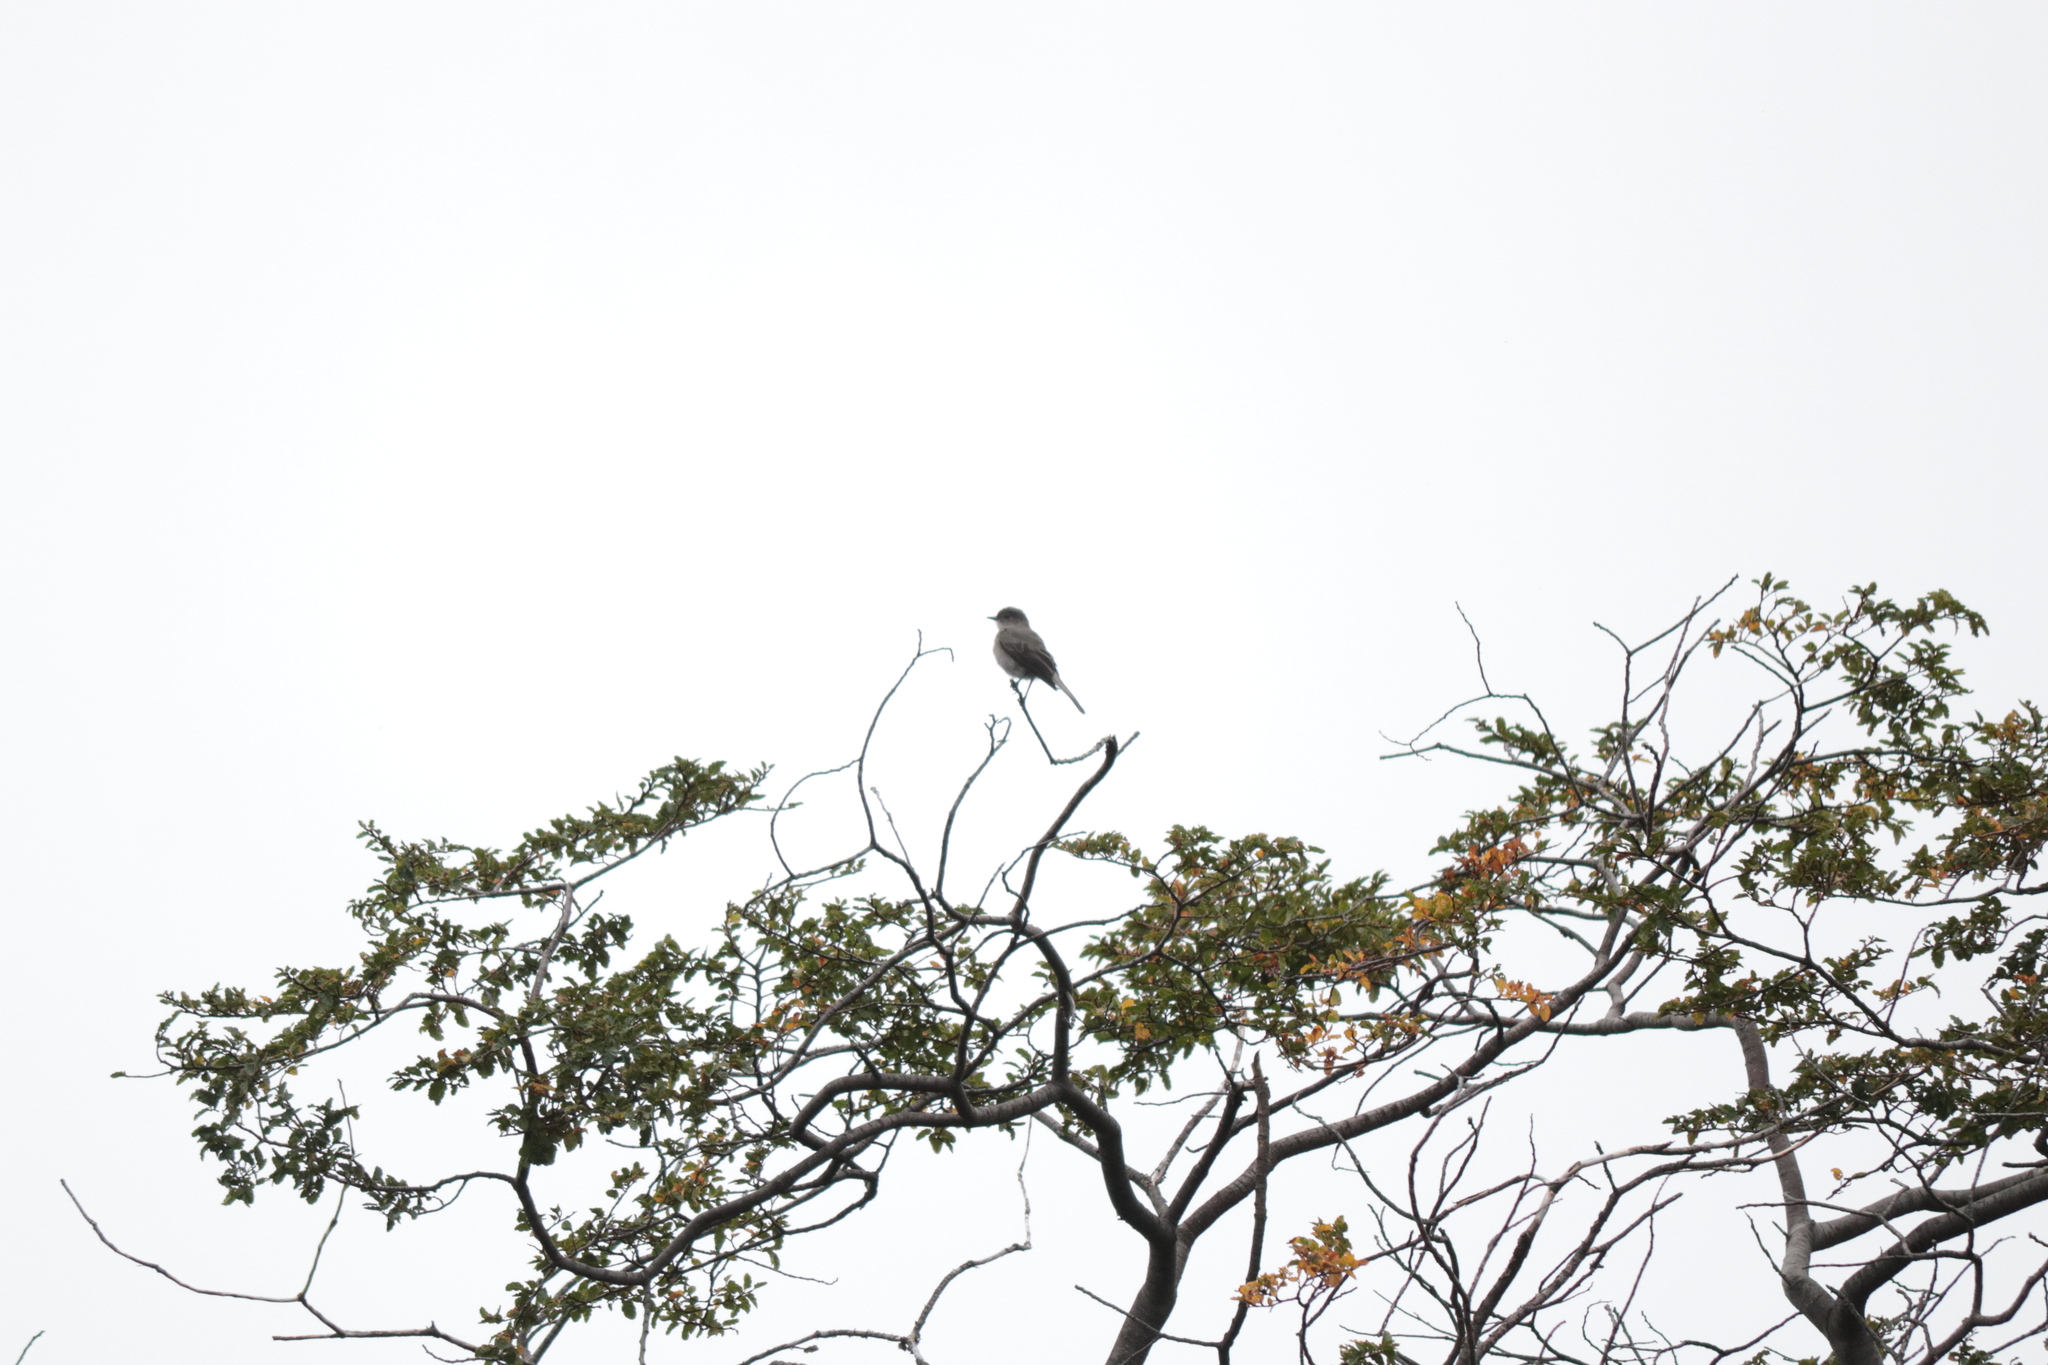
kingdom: Animalia
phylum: Chordata
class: Aves
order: Passeriformes
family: Tyrannidae
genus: Elaenia
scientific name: Elaenia albiceps
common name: White-crested elaenia
